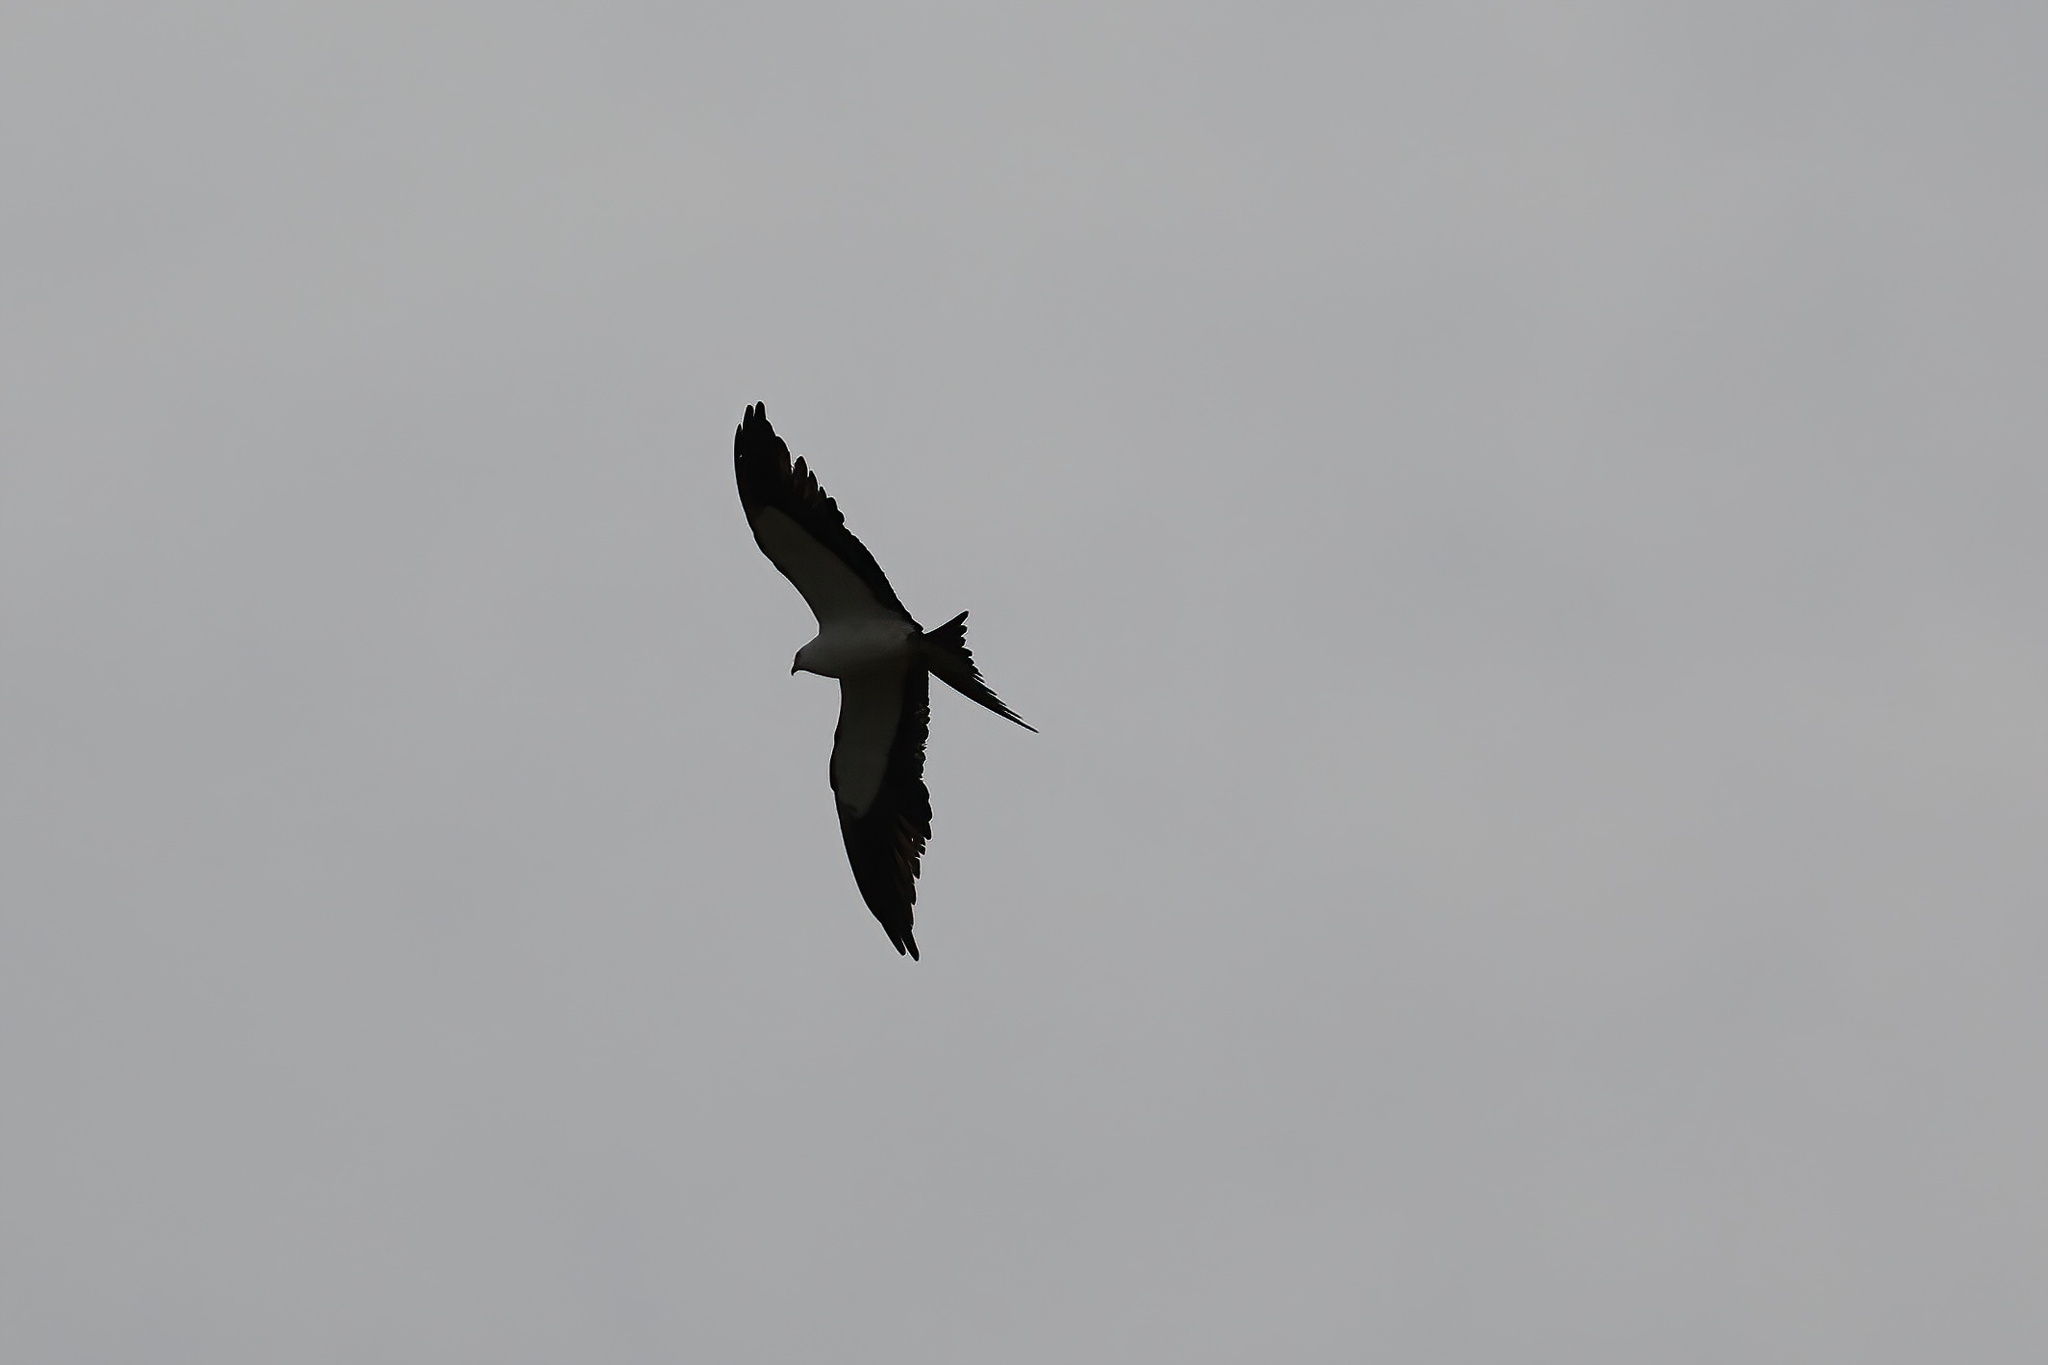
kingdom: Animalia
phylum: Chordata
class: Aves
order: Accipitriformes
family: Accipitridae
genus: Elanoides
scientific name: Elanoides forficatus
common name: Swallow-tailed kite
